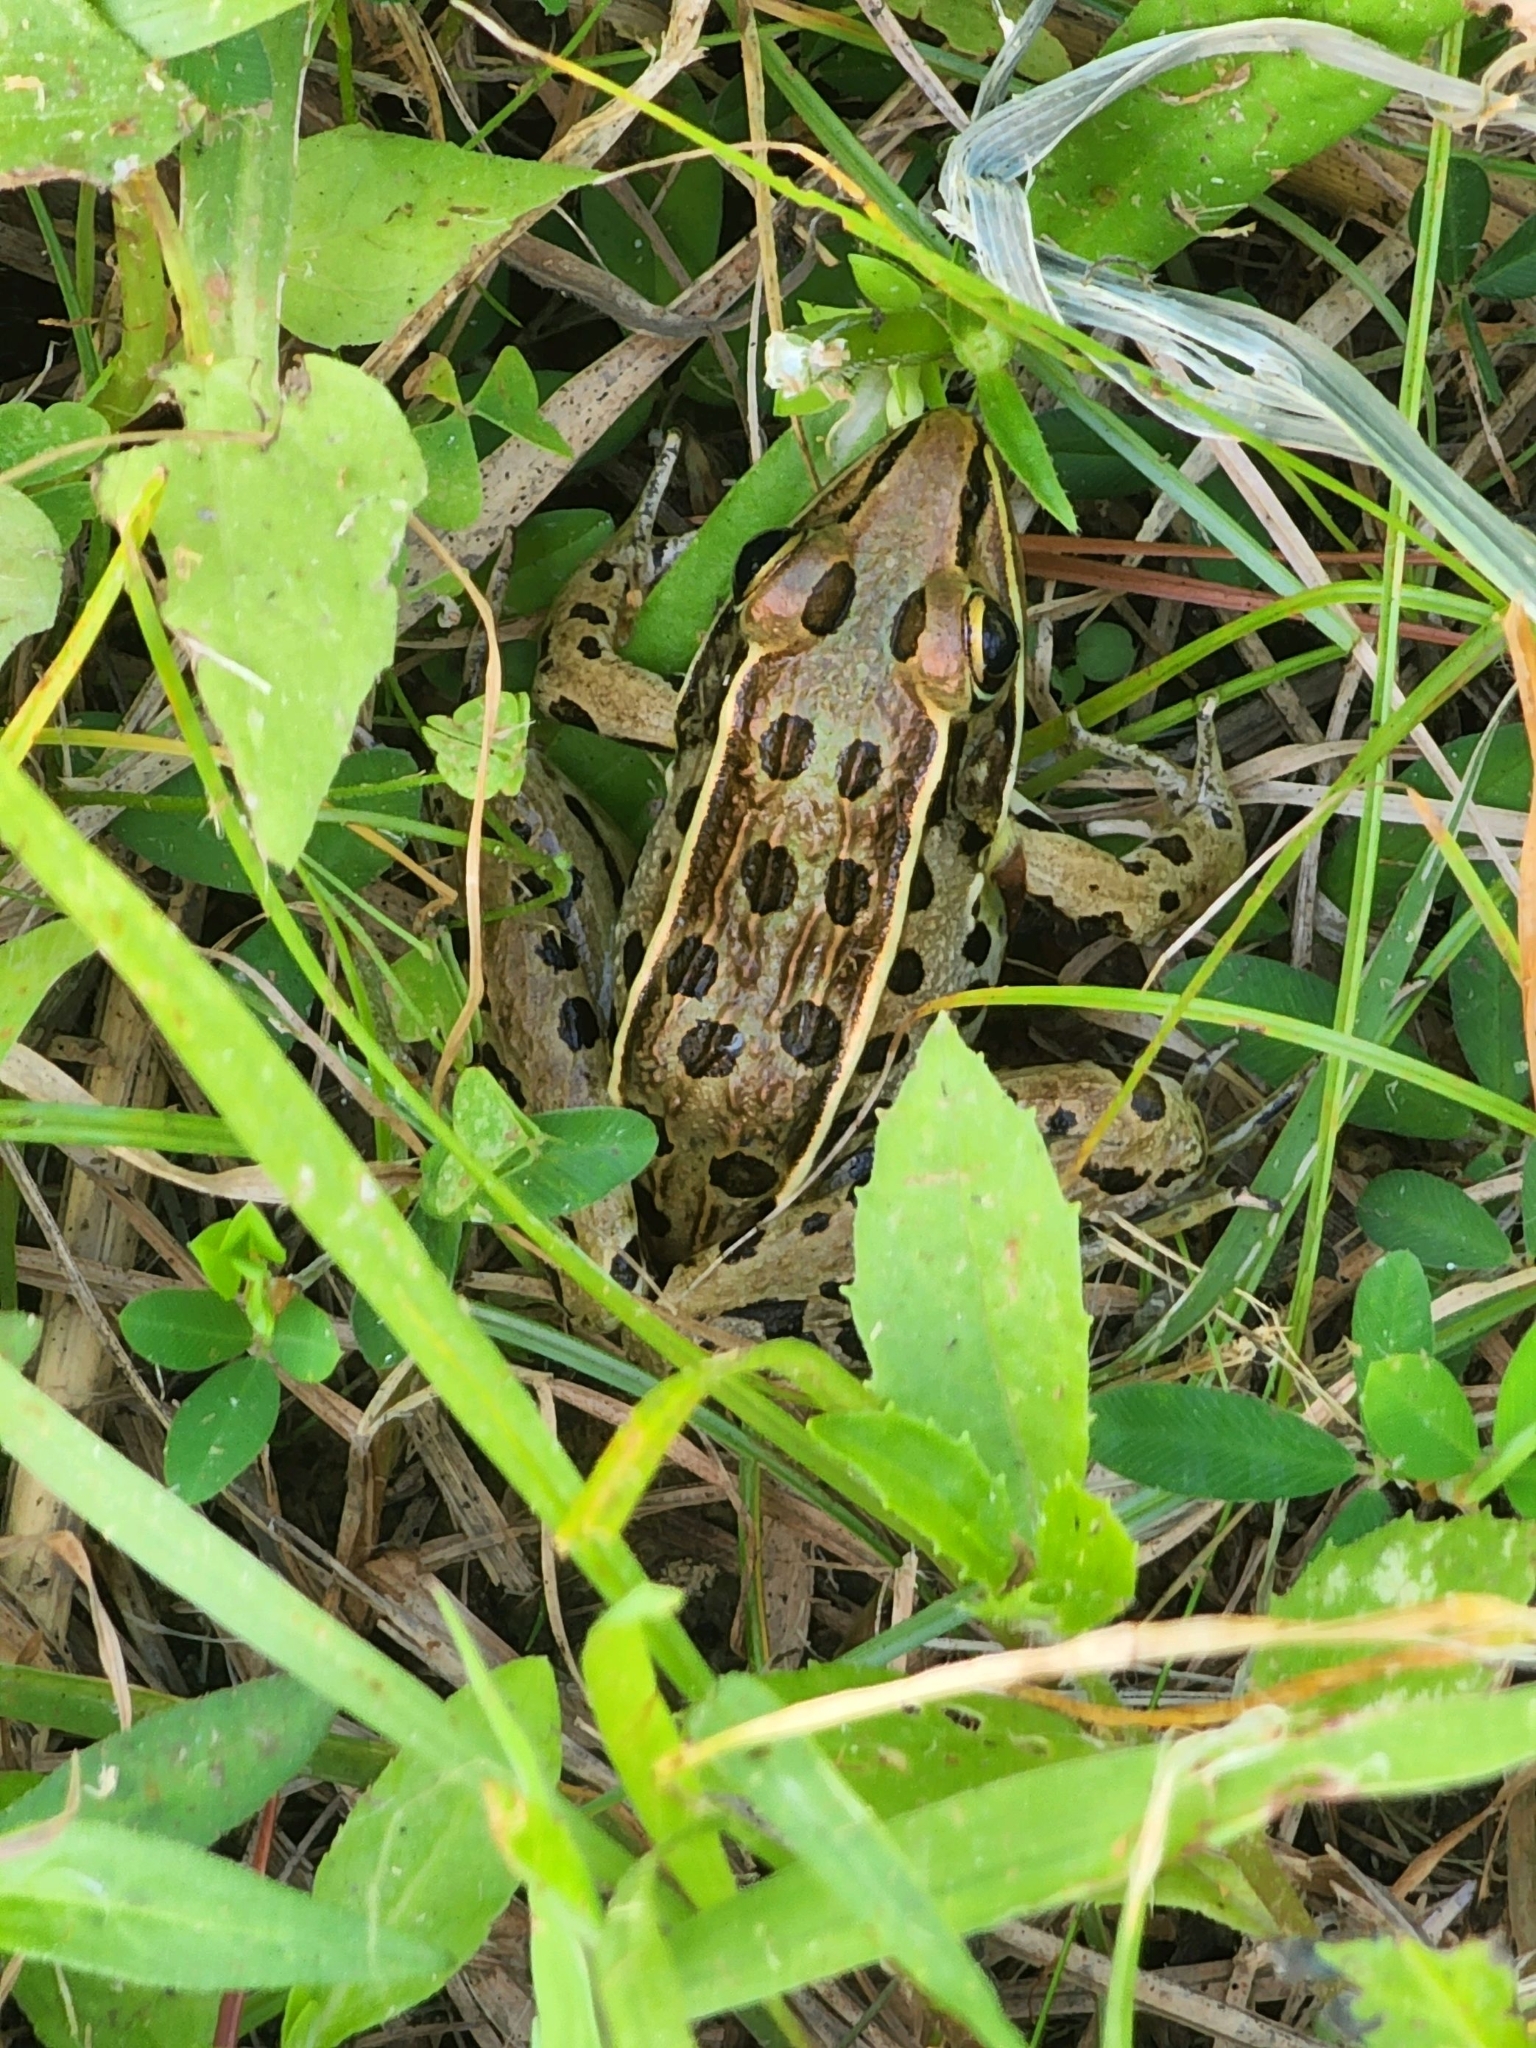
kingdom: Animalia
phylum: Chordata
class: Amphibia
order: Anura
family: Ranidae
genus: Lithobates
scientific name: Lithobates sphenocephalus
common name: Southern leopard frog
